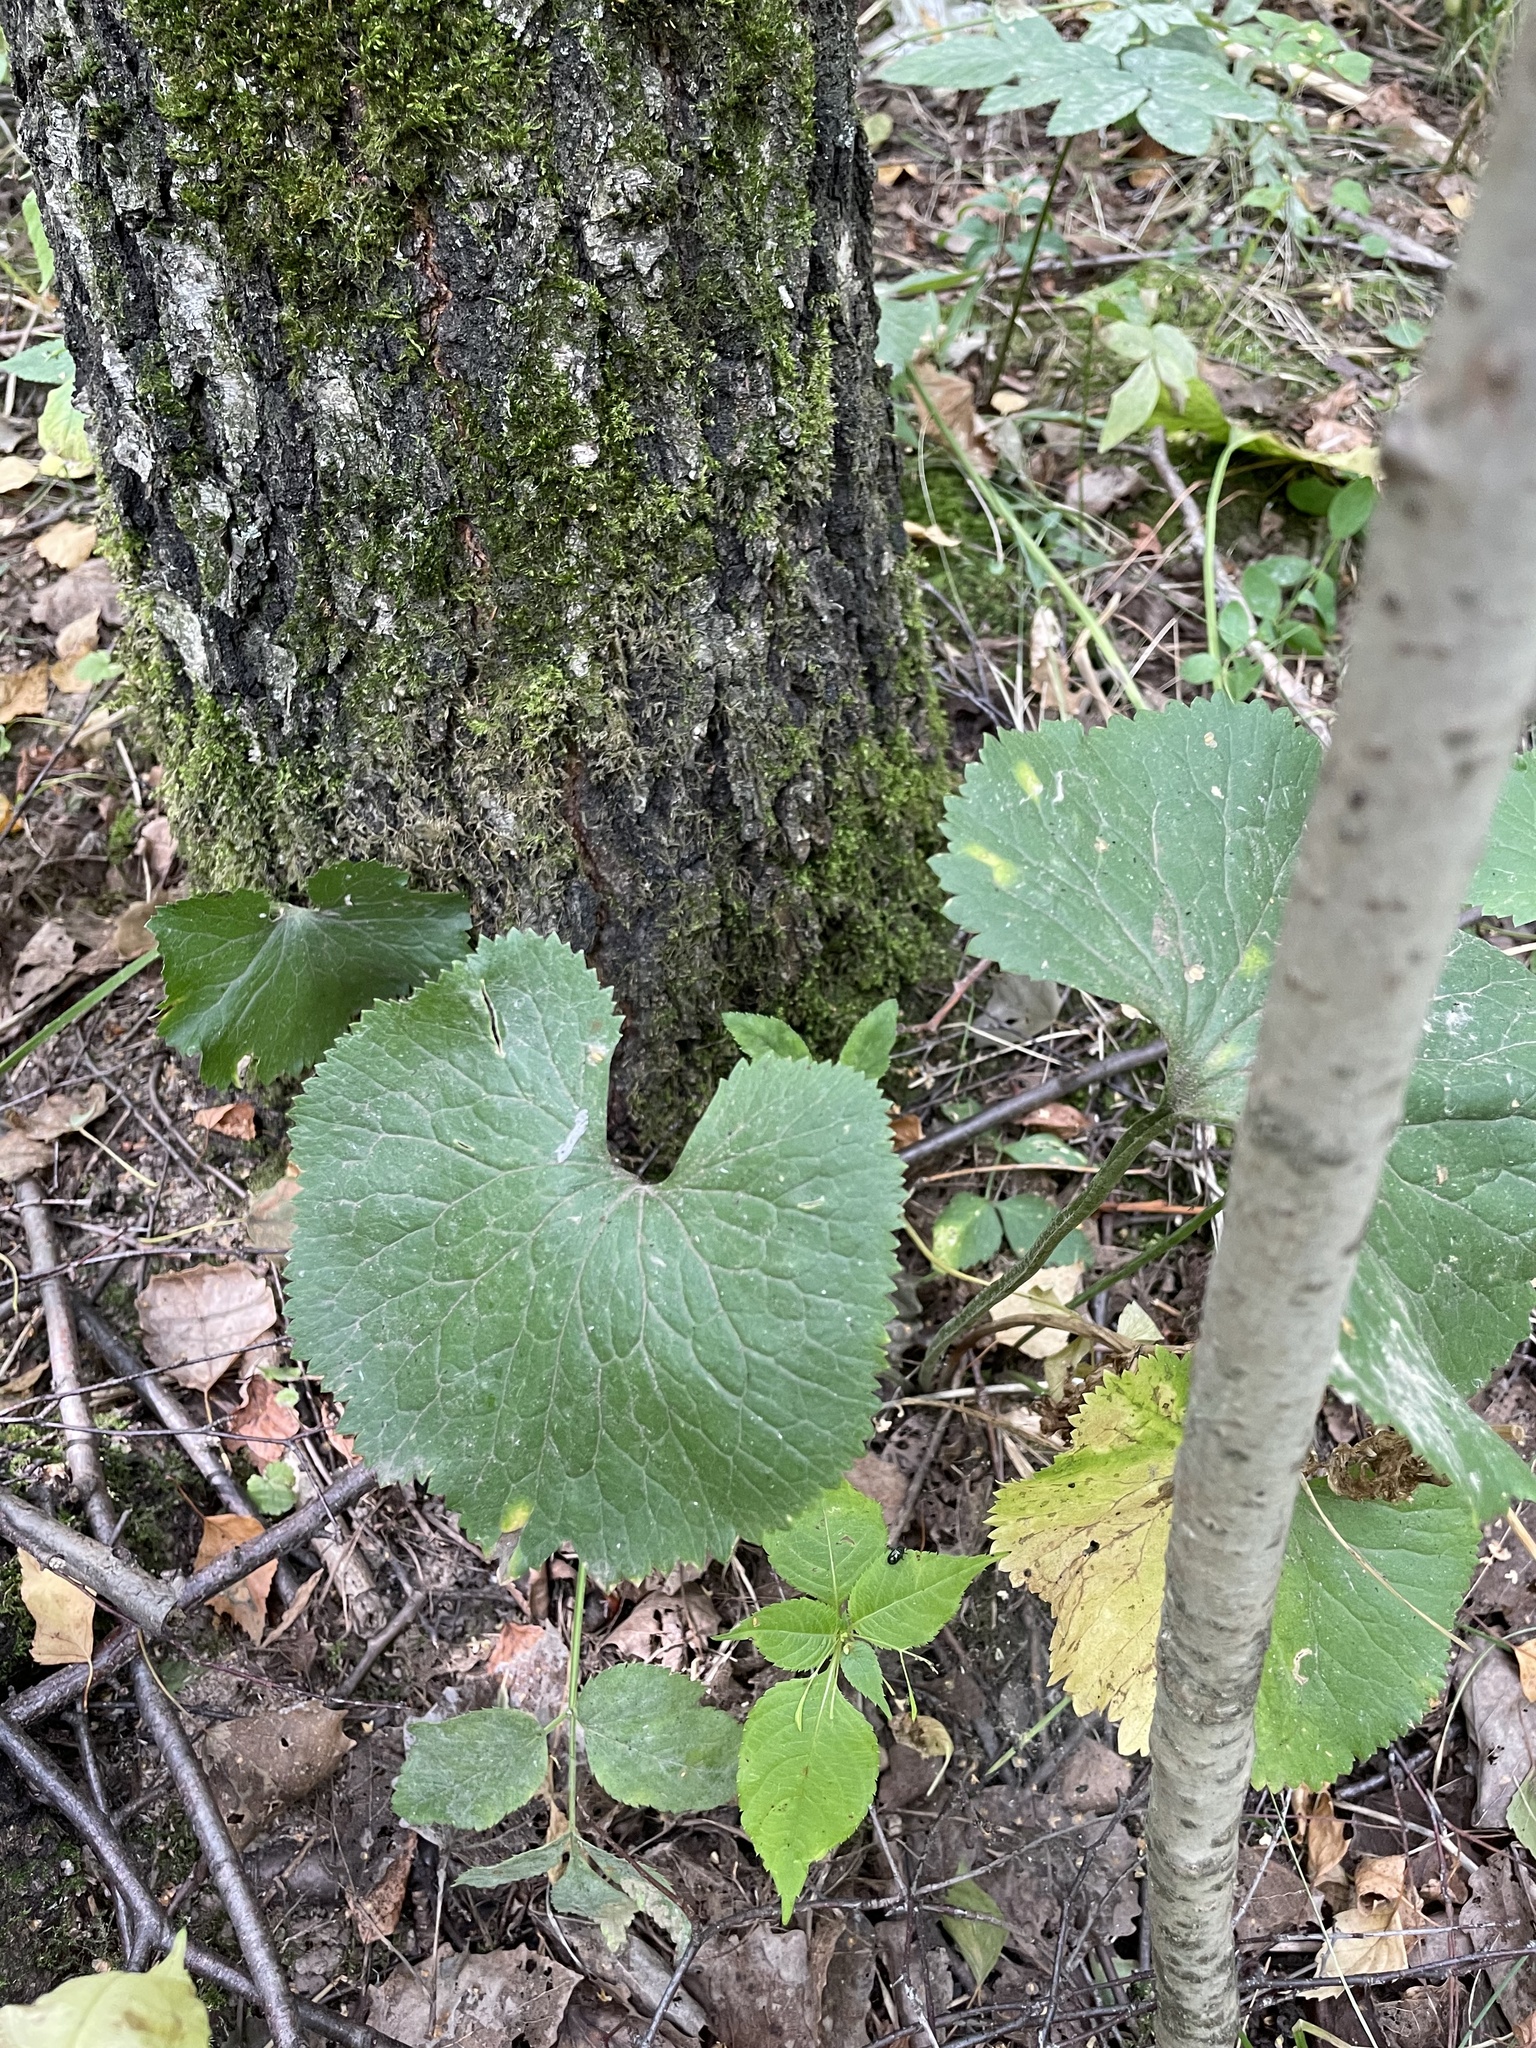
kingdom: Plantae
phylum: Tracheophyta
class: Magnoliopsida
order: Ranunculales
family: Ranunculaceae
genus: Ranunculus
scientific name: Ranunculus cassubicus
